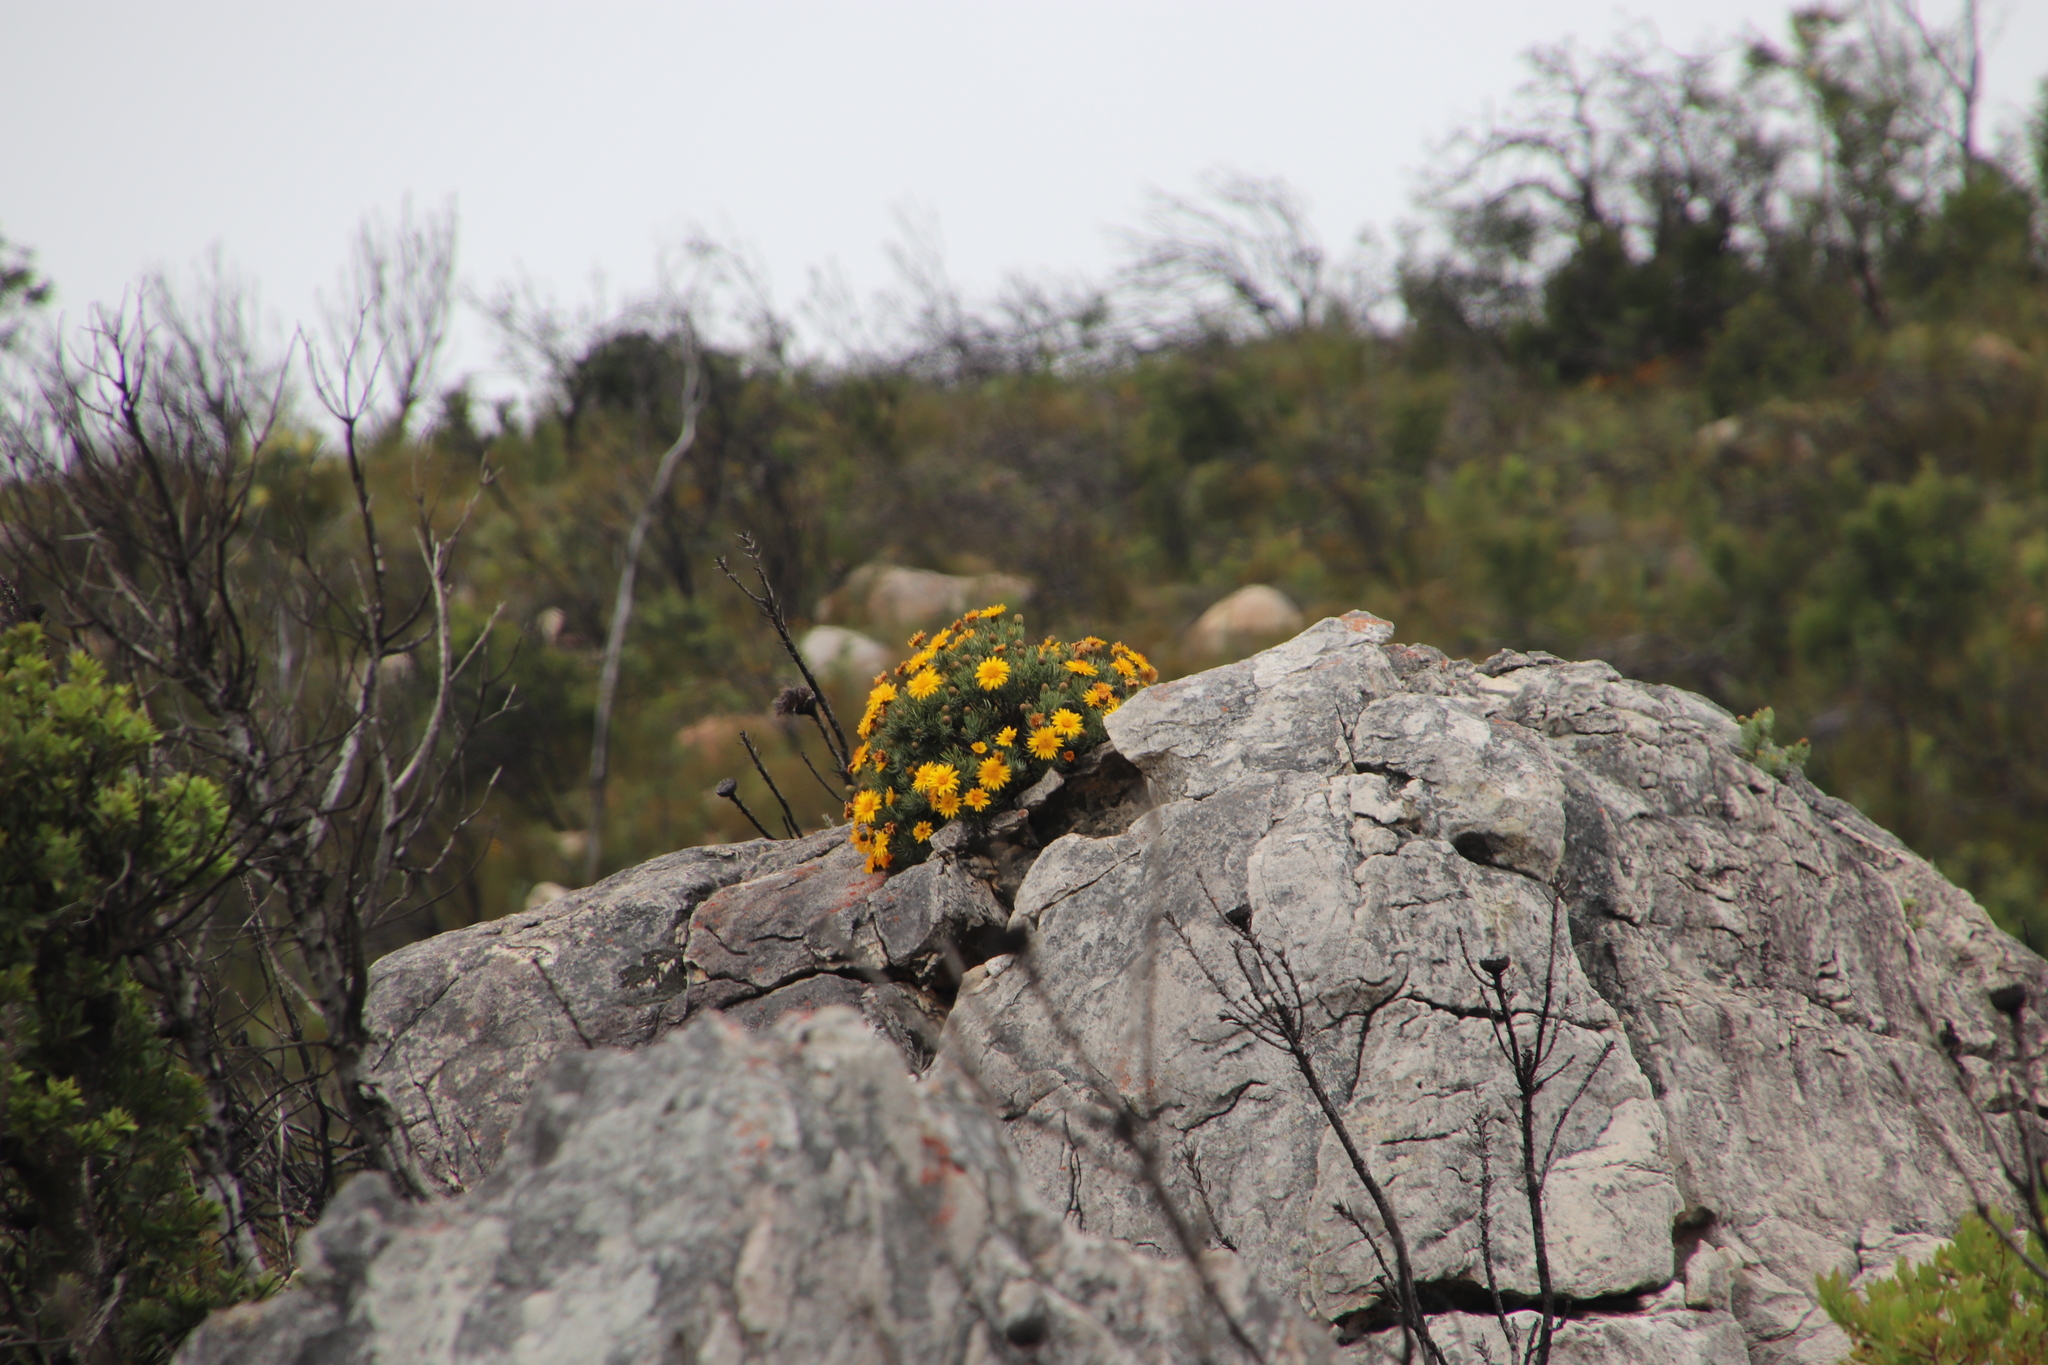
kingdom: Plantae
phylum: Tracheophyta
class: Magnoliopsida
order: Asterales
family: Asteraceae
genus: Heterolepis
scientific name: Heterolepis aliena
